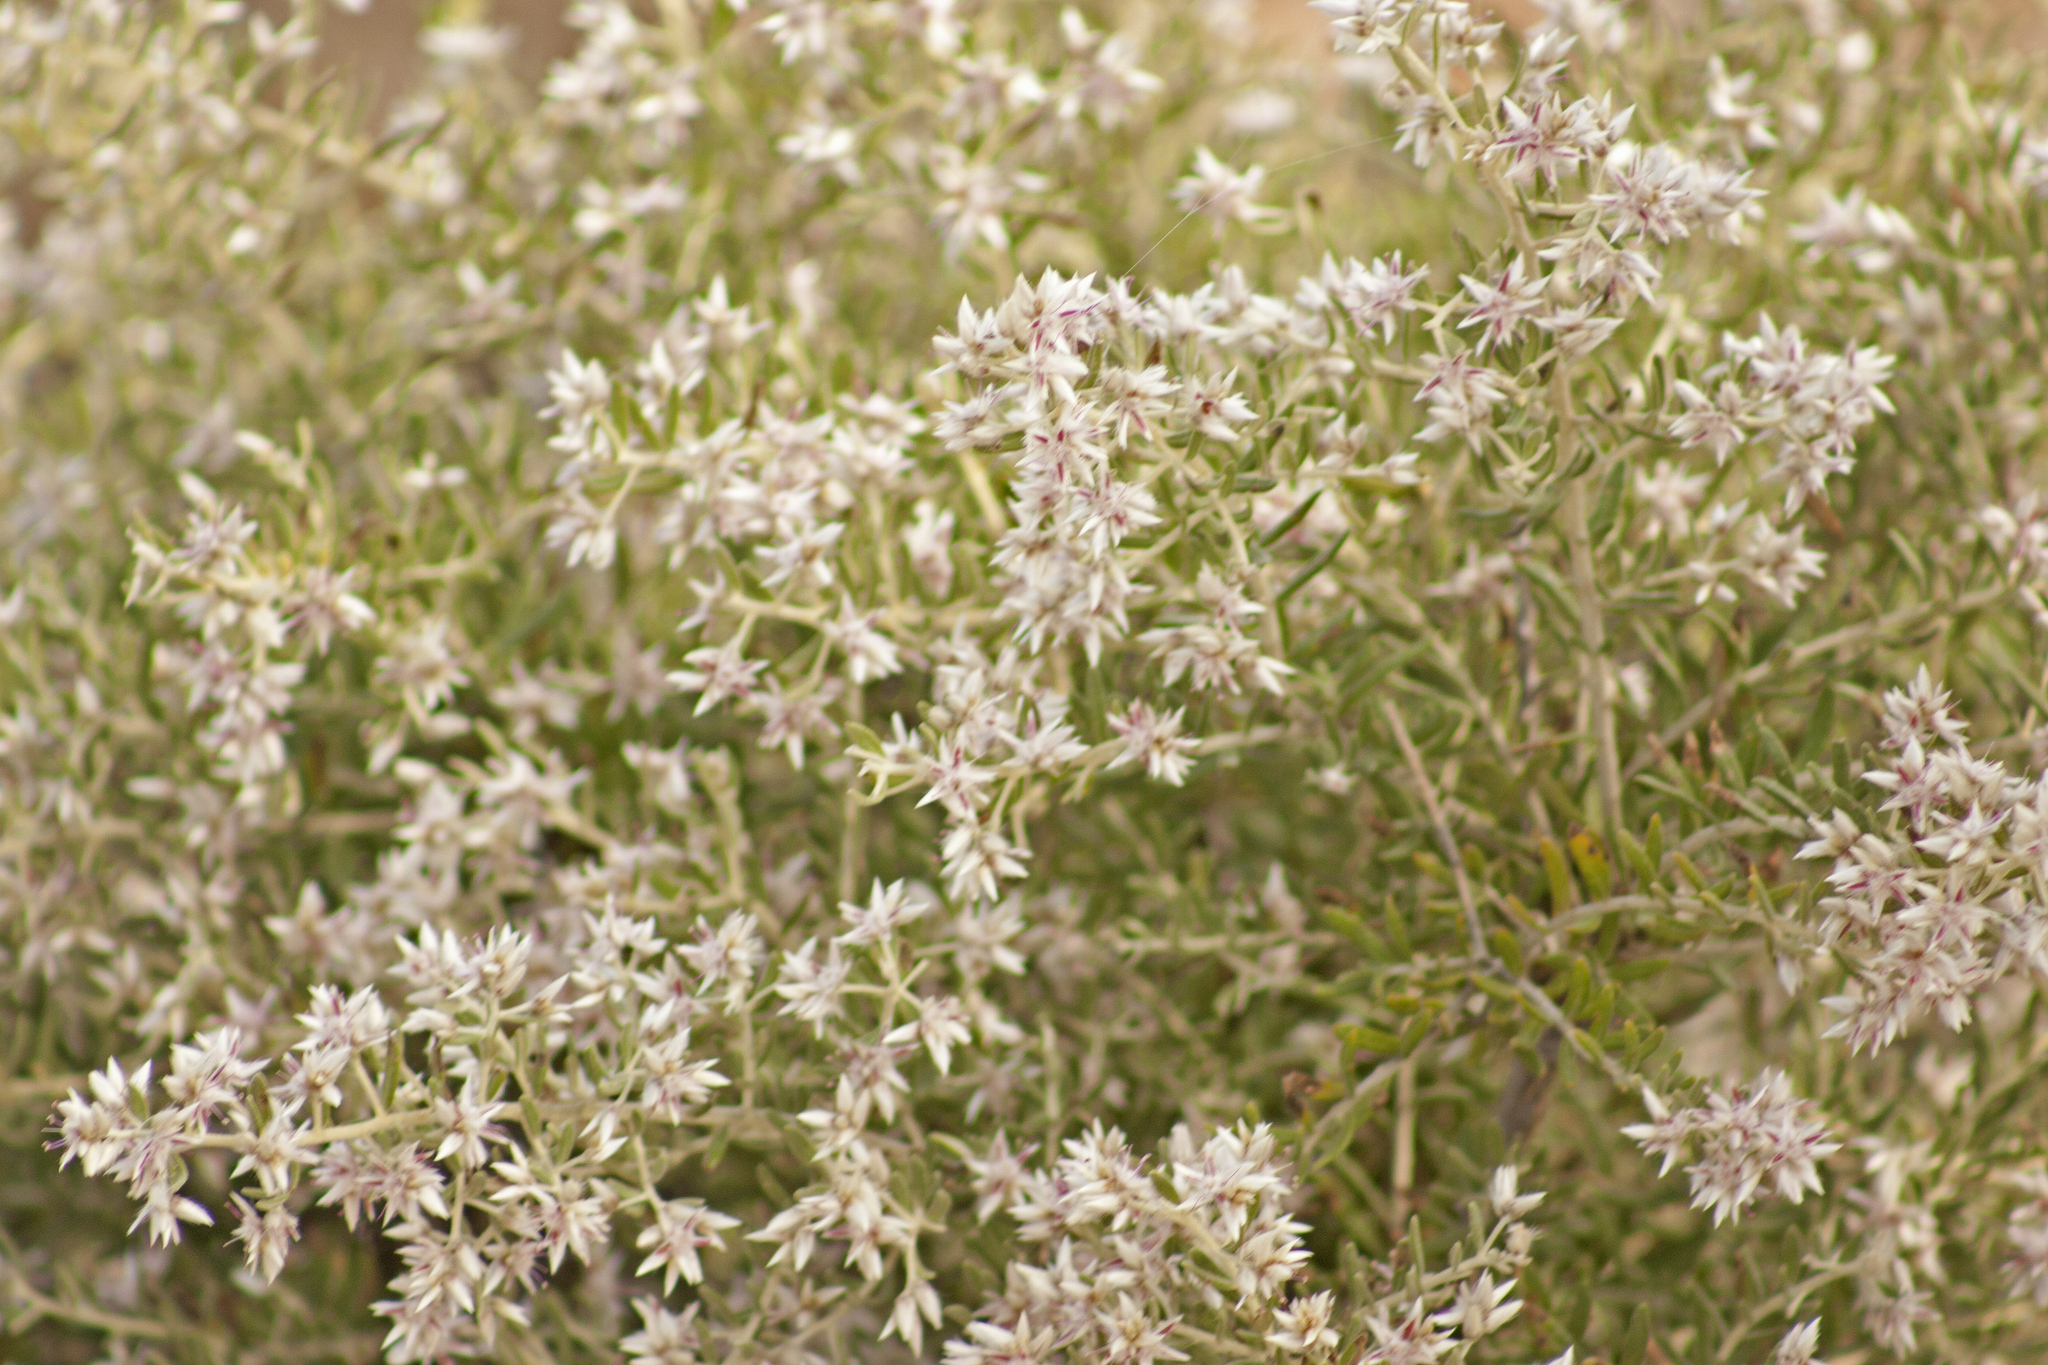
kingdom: Plantae
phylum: Tracheophyta
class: Magnoliopsida
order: Caryophyllales
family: Amaranthaceae
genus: Ptilotus
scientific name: Ptilotus pedleyanus
